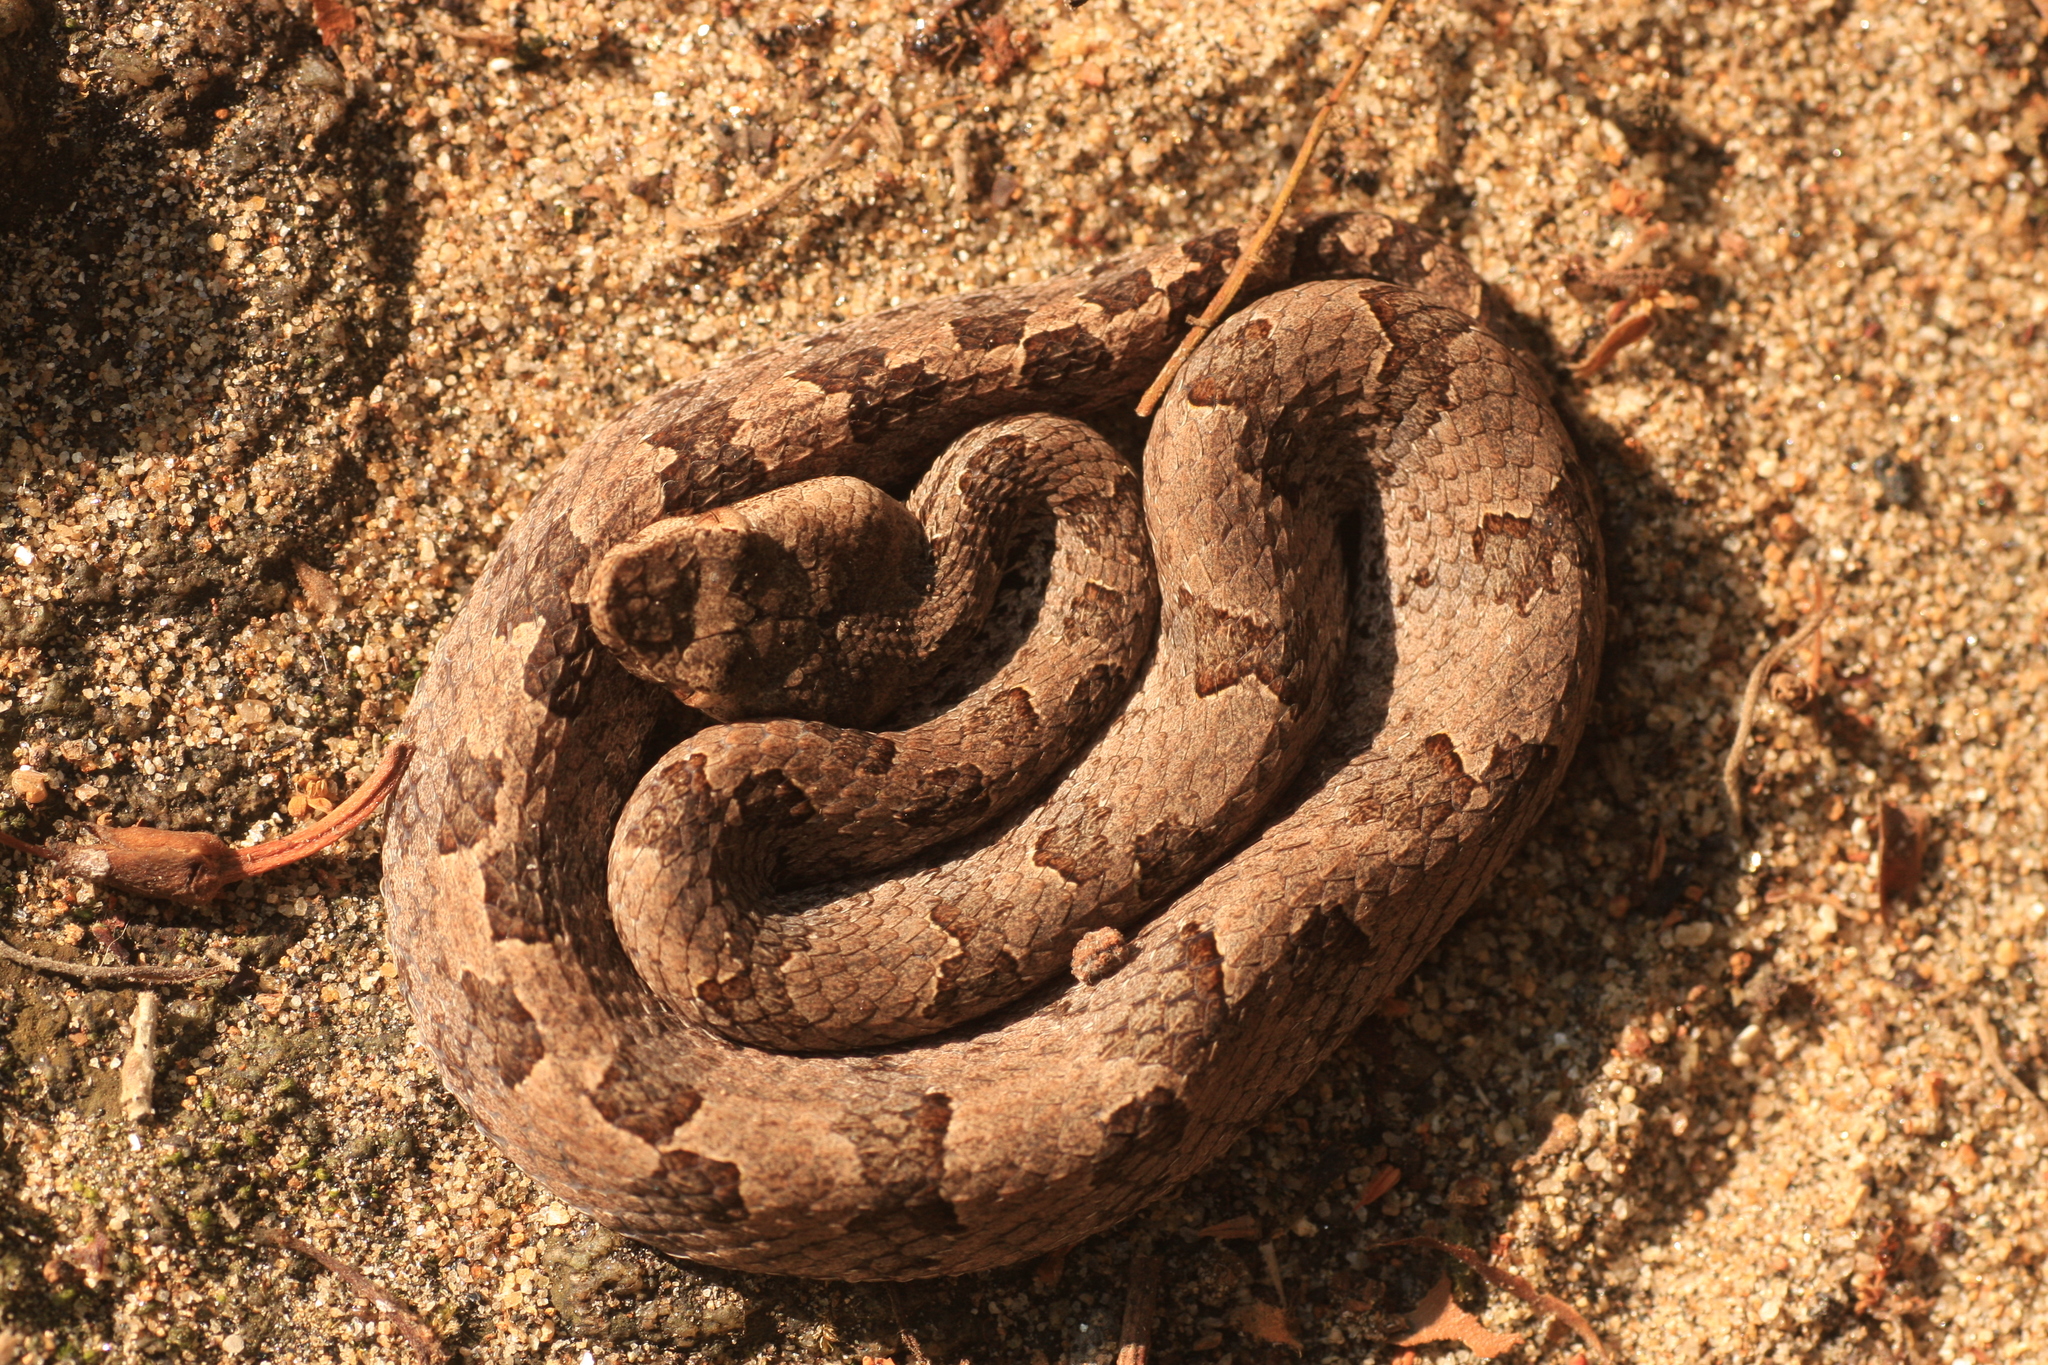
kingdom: Animalia
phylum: Chordata
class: Squamata
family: Viperidae
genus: Hypnale
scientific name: Hypnale hypnale
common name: Hump-nosed moccasin
